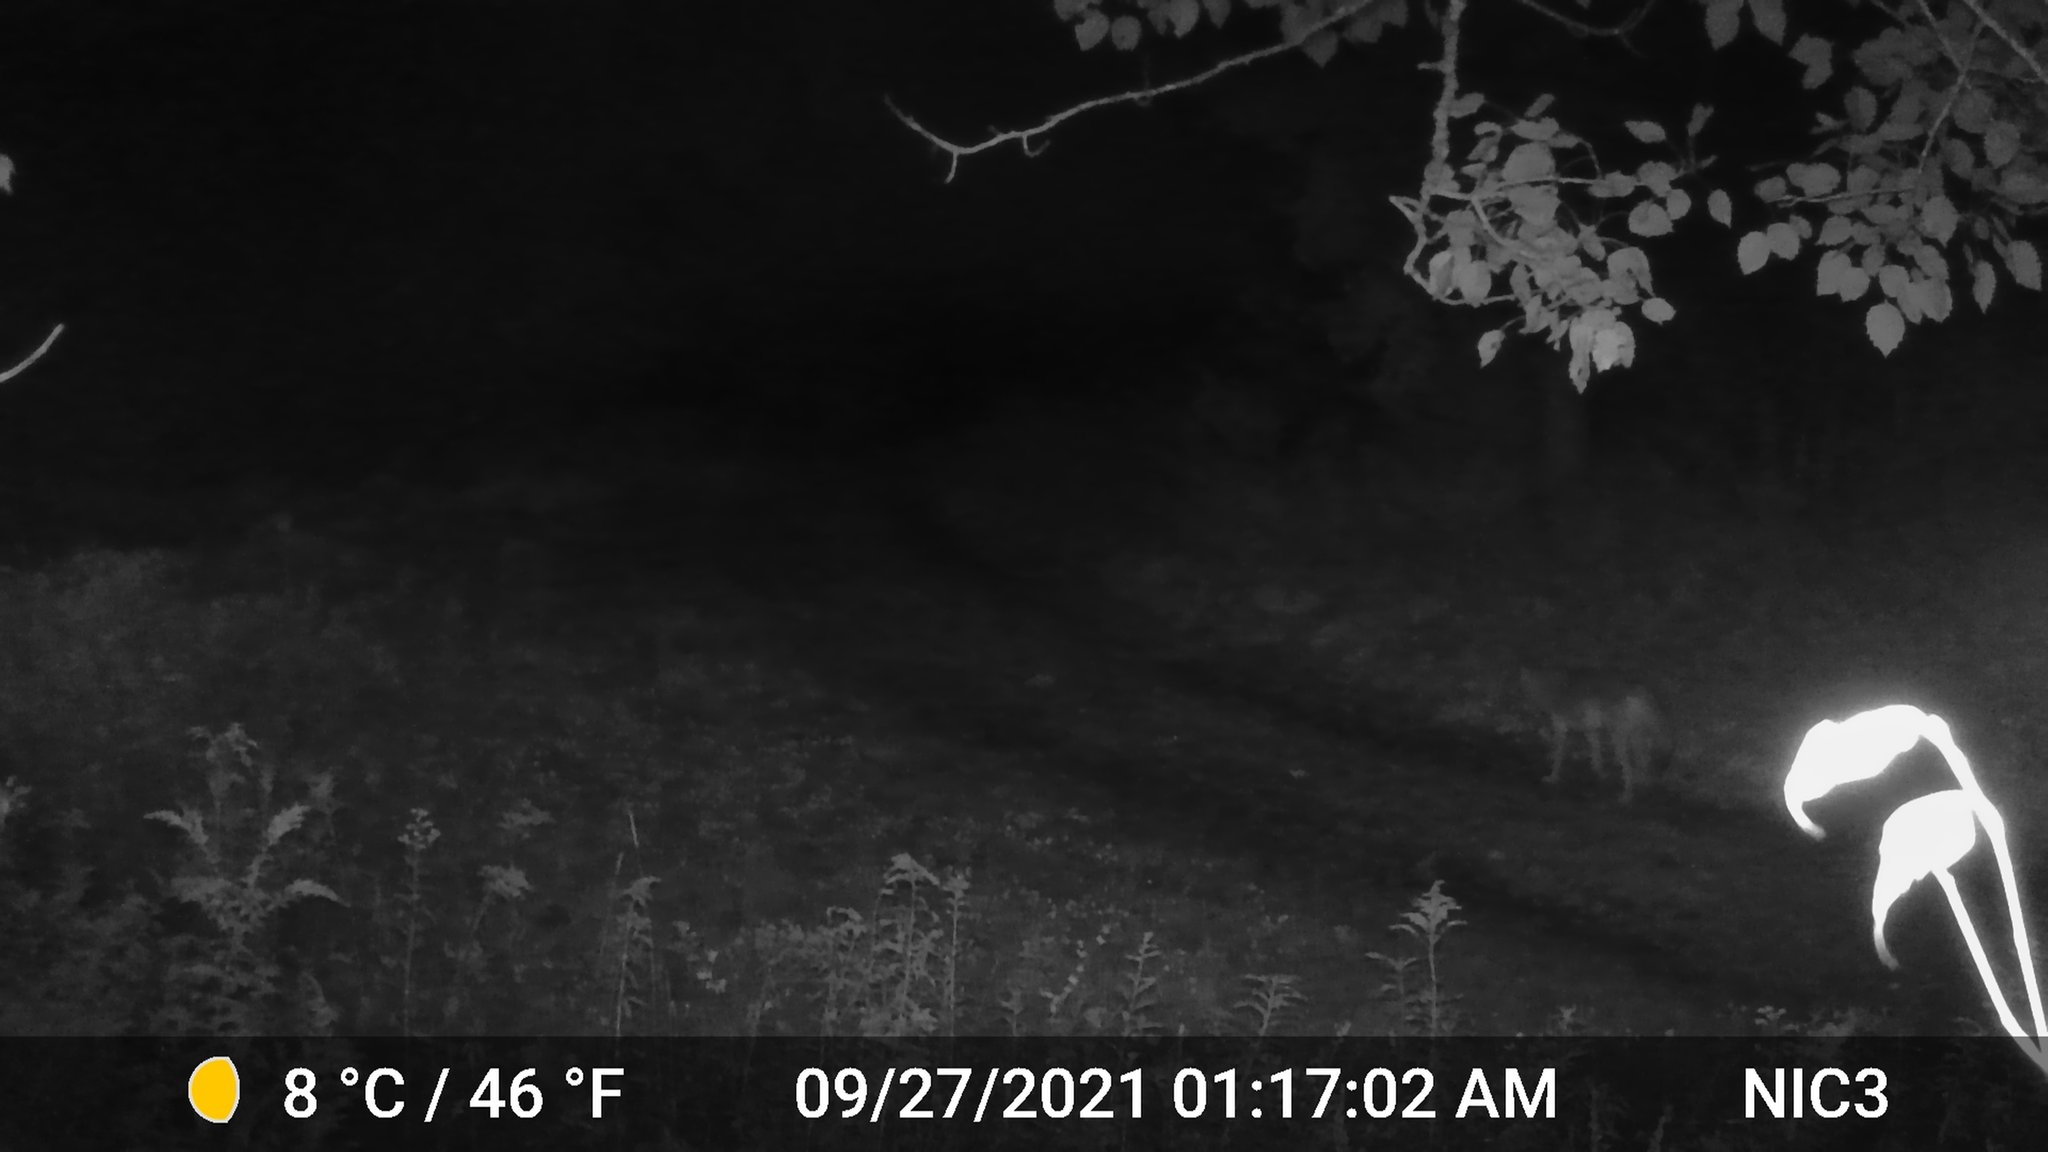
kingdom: Animalia
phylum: Chordata
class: Mammalia
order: Carnivora
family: Canidae
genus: Canis
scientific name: Canis latrans
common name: Coyote
